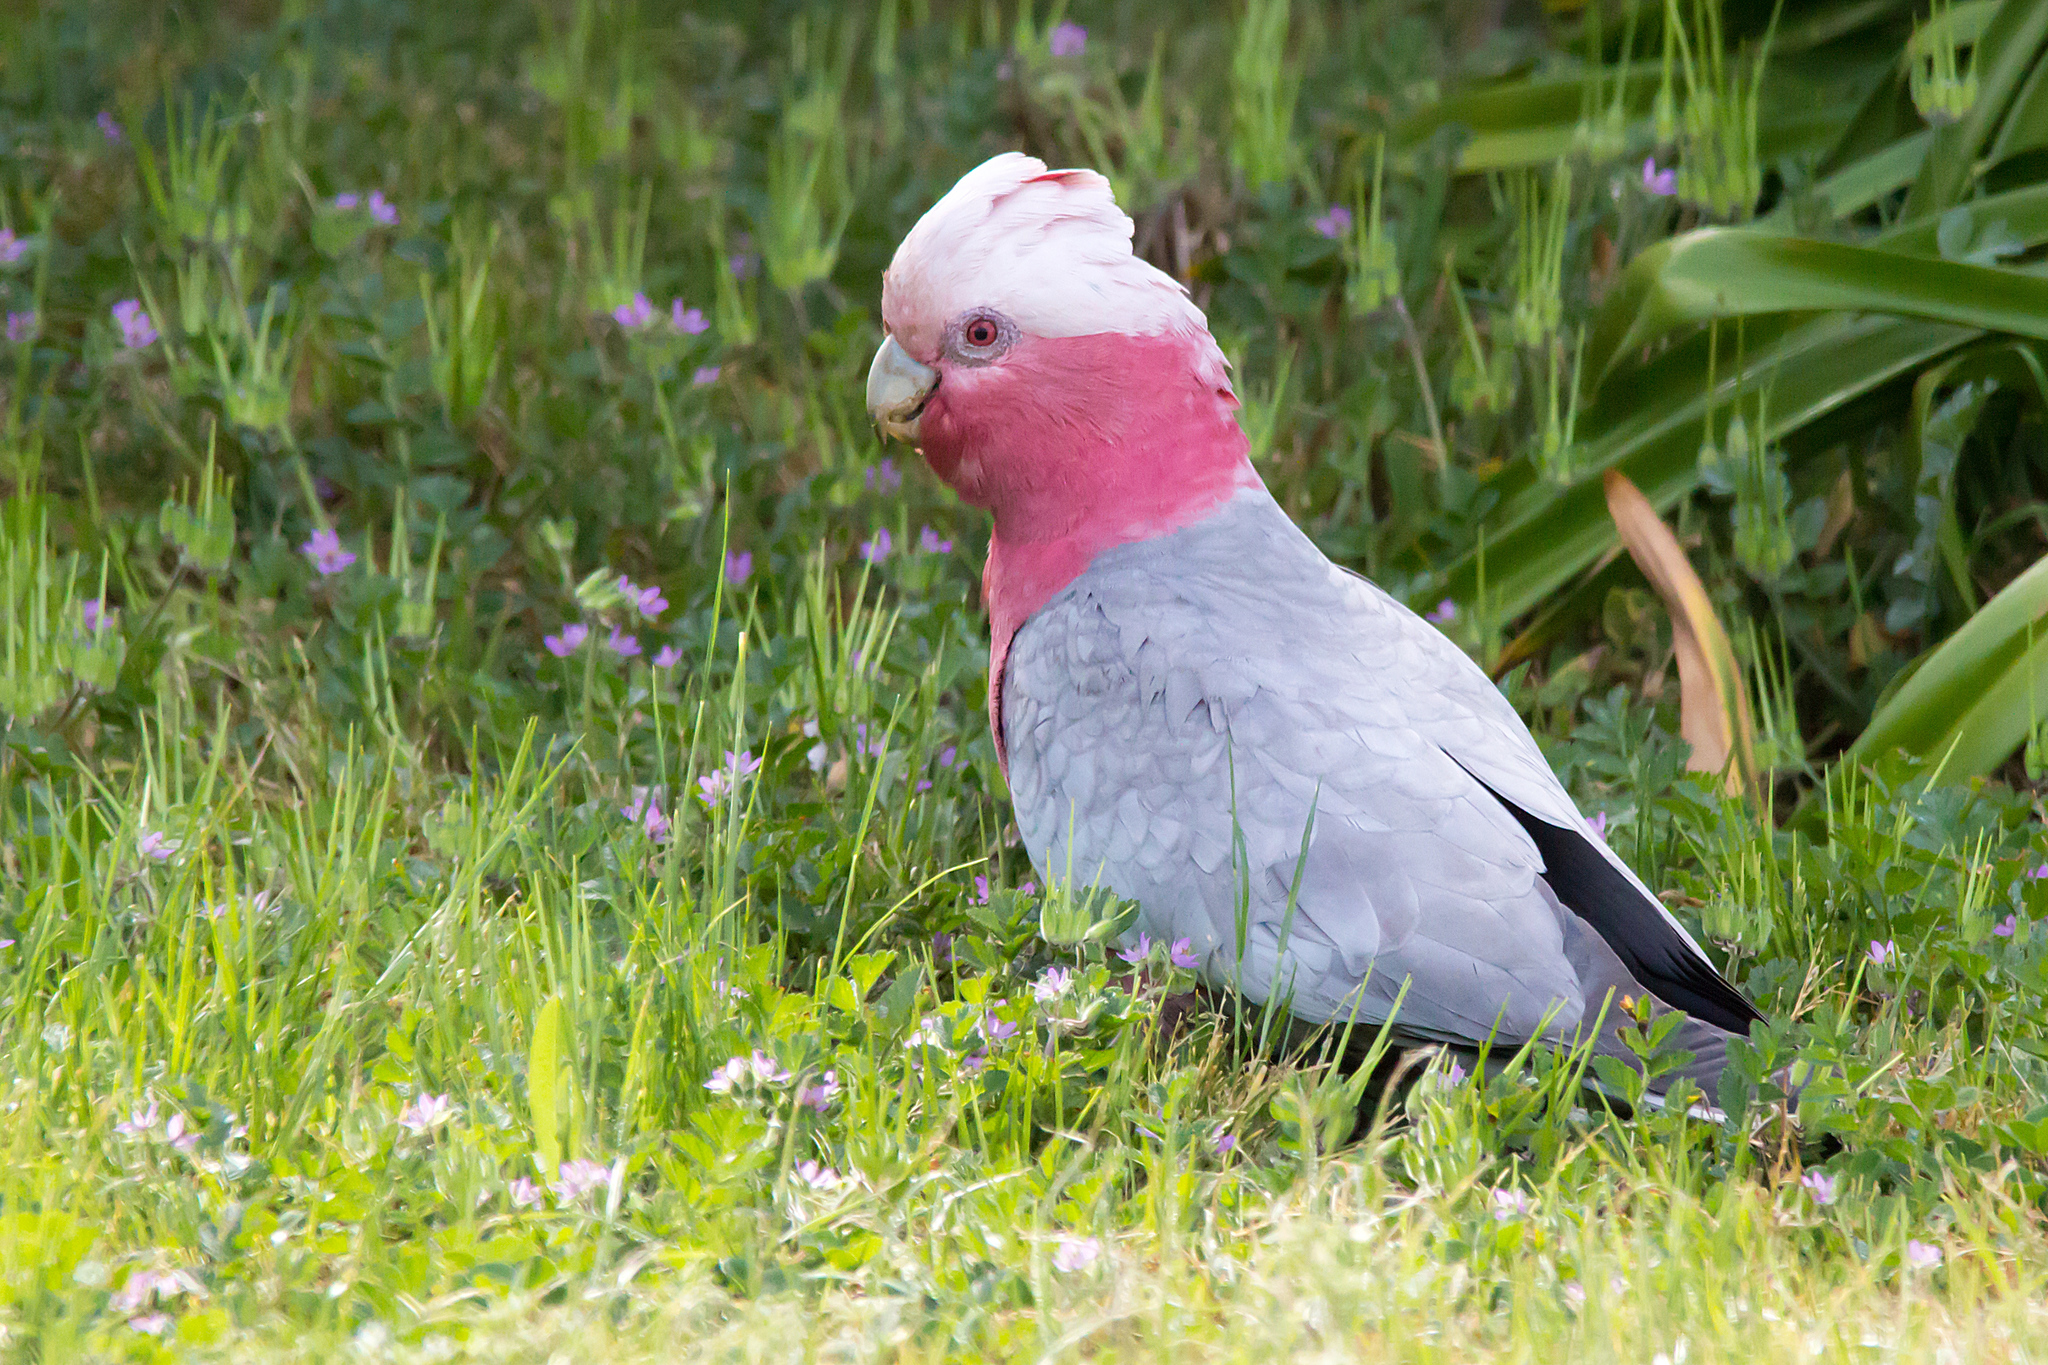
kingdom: Animalia
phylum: Chordata
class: Aves
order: Psittaciformes
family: Psittacidae
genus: Eolophus
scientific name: Eolophus roseicapilla
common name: Galah
